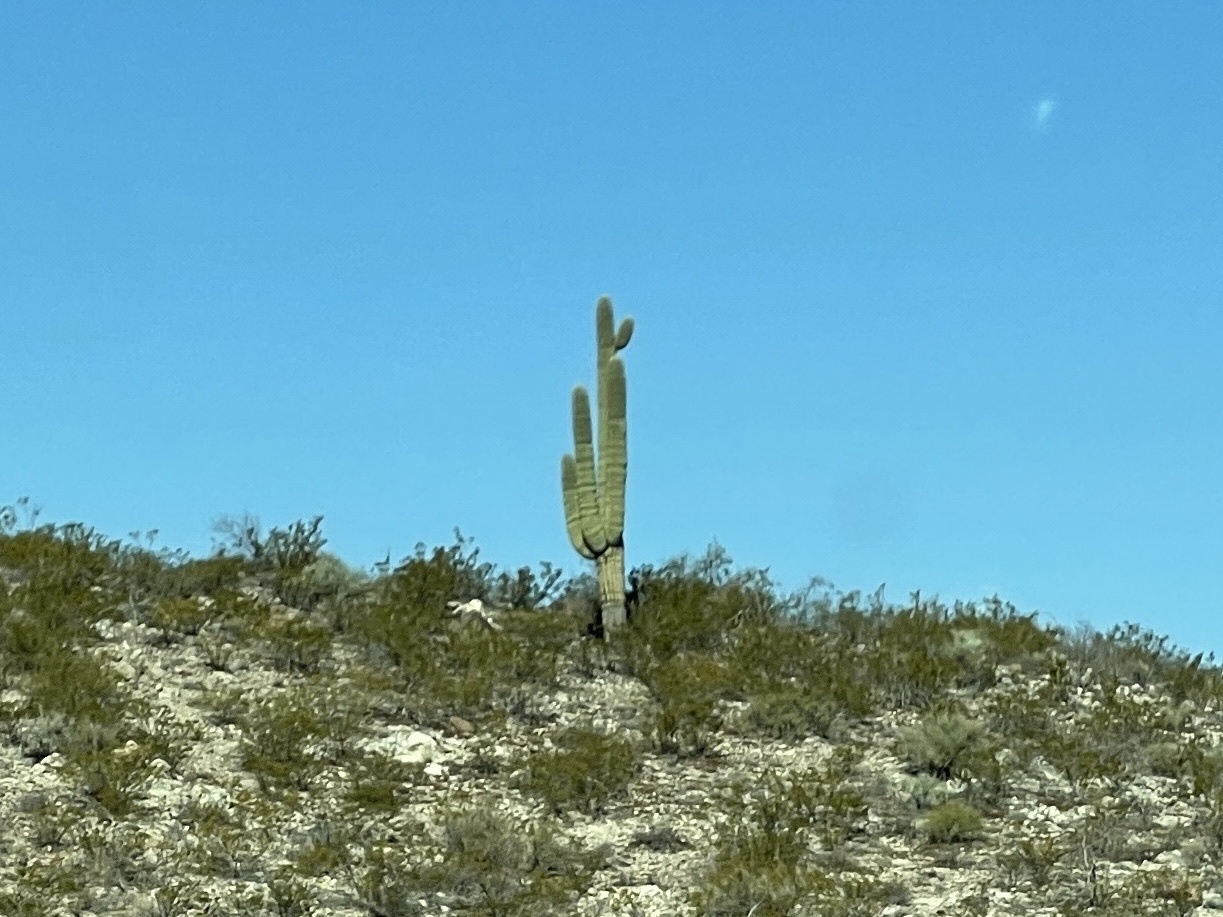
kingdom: Plantae
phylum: Tracheophyta
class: Magnoliopsida
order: Caryophyllales
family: Cactaceae
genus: Carnegiea
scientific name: Carnegiea gigantea
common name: Saguaro
